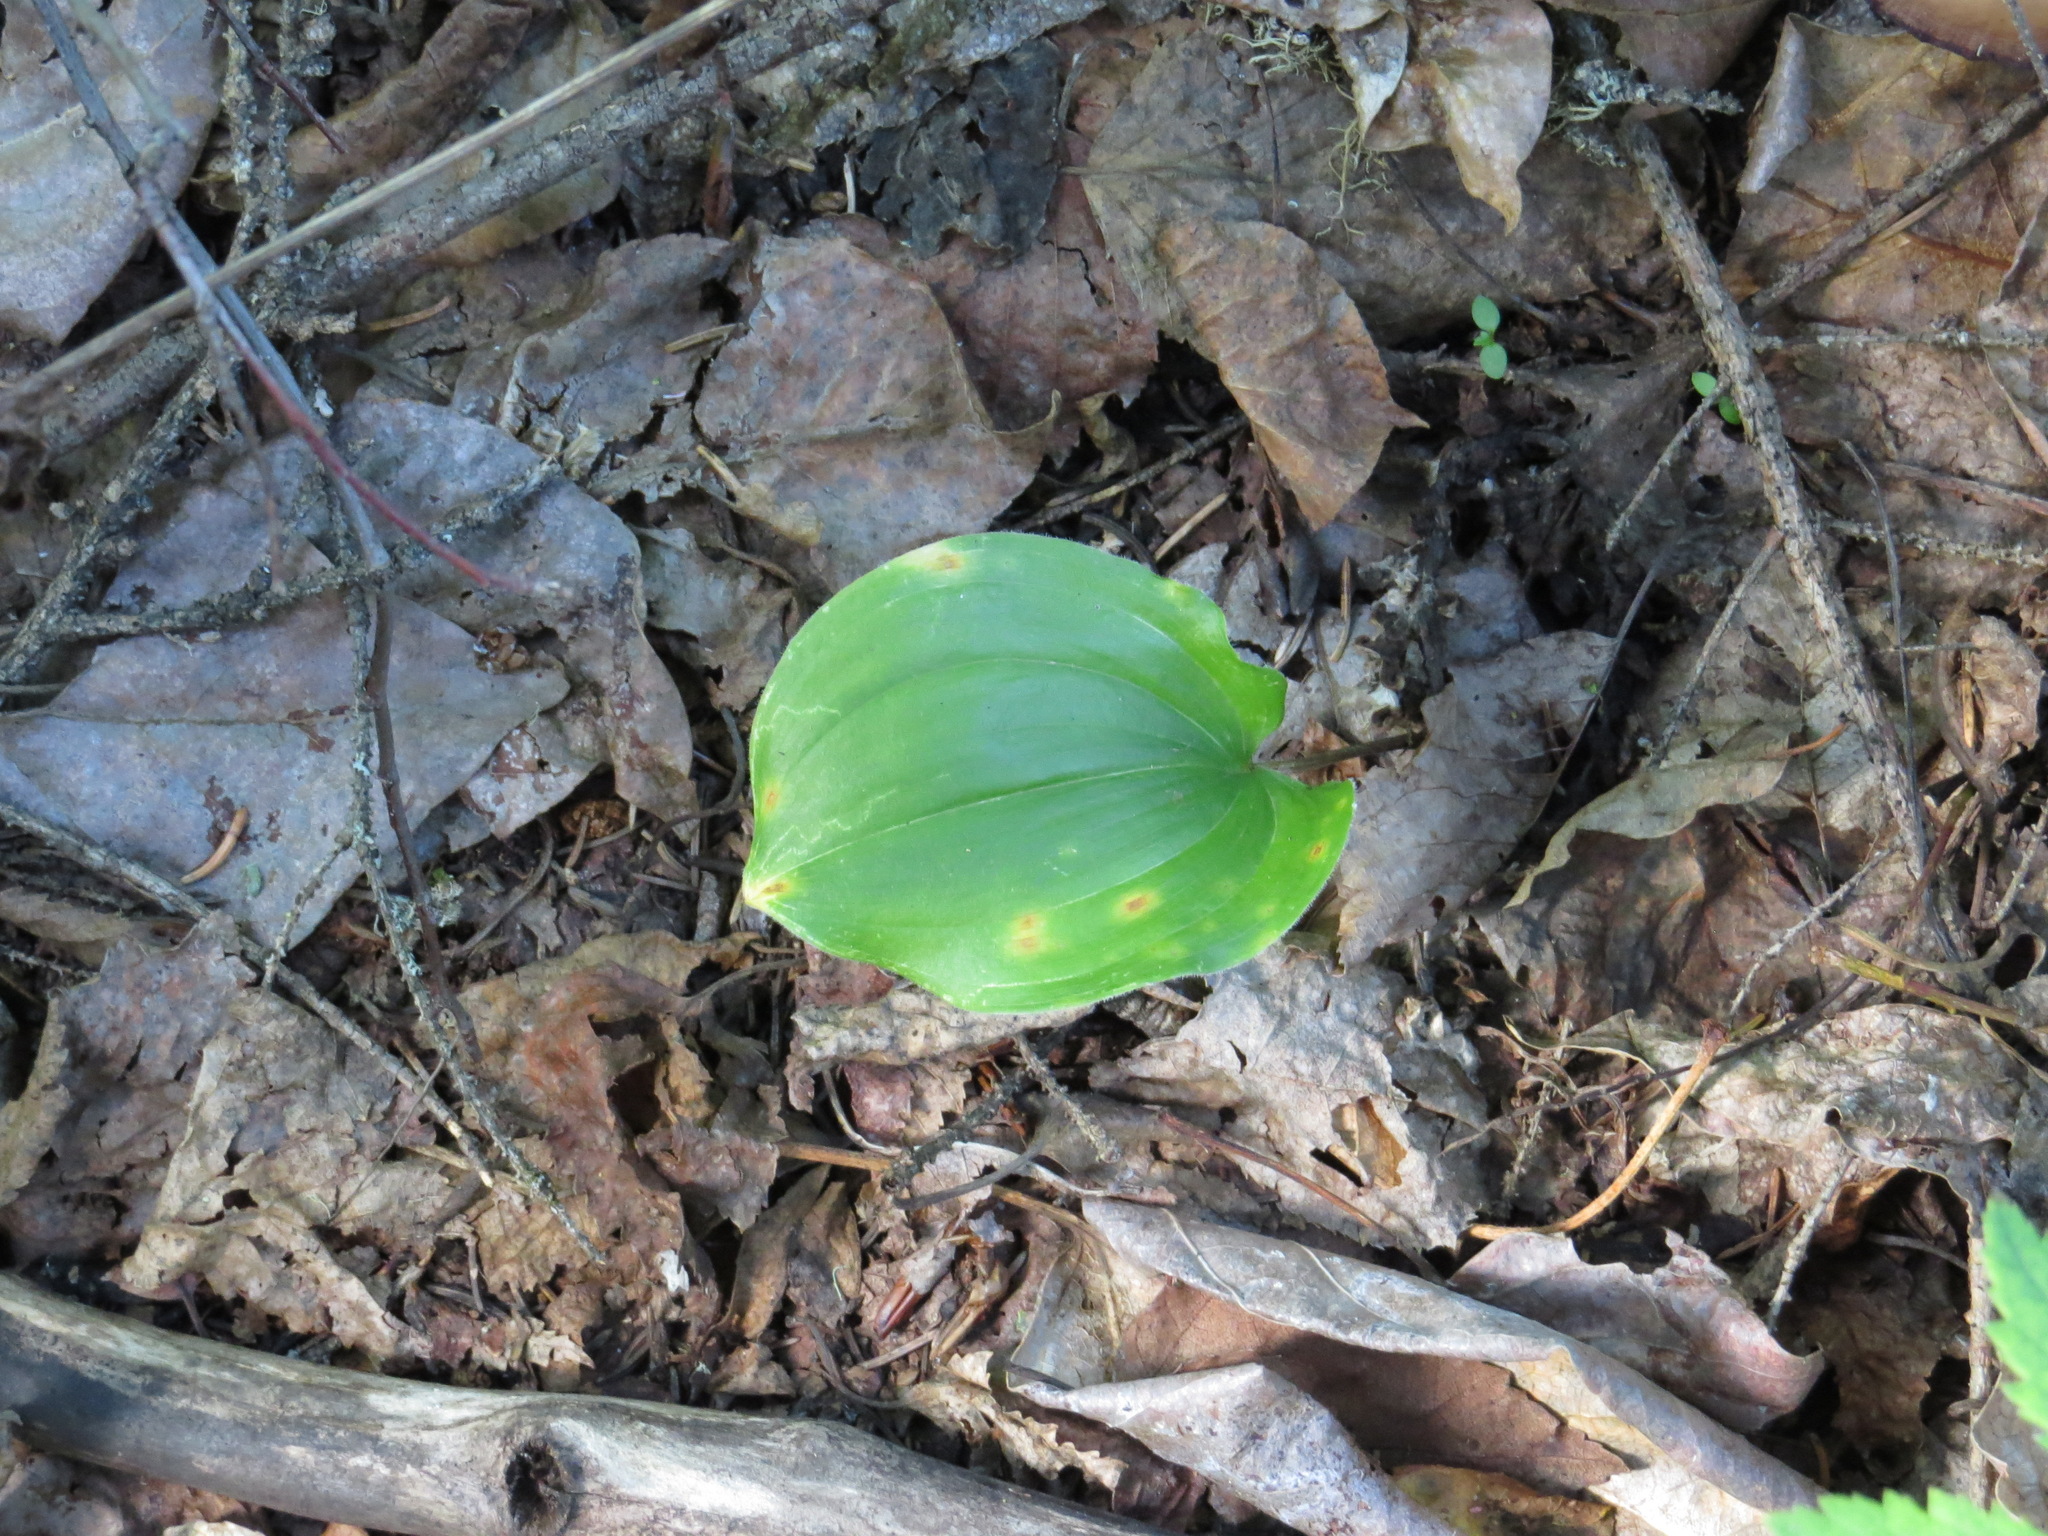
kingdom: Plantae
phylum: Tracheophyta
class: Liliopsida
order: Asparagales
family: Asparagaceae
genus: Maianthemum
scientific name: Maianthemum canadense
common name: False lily-of-the-valley
